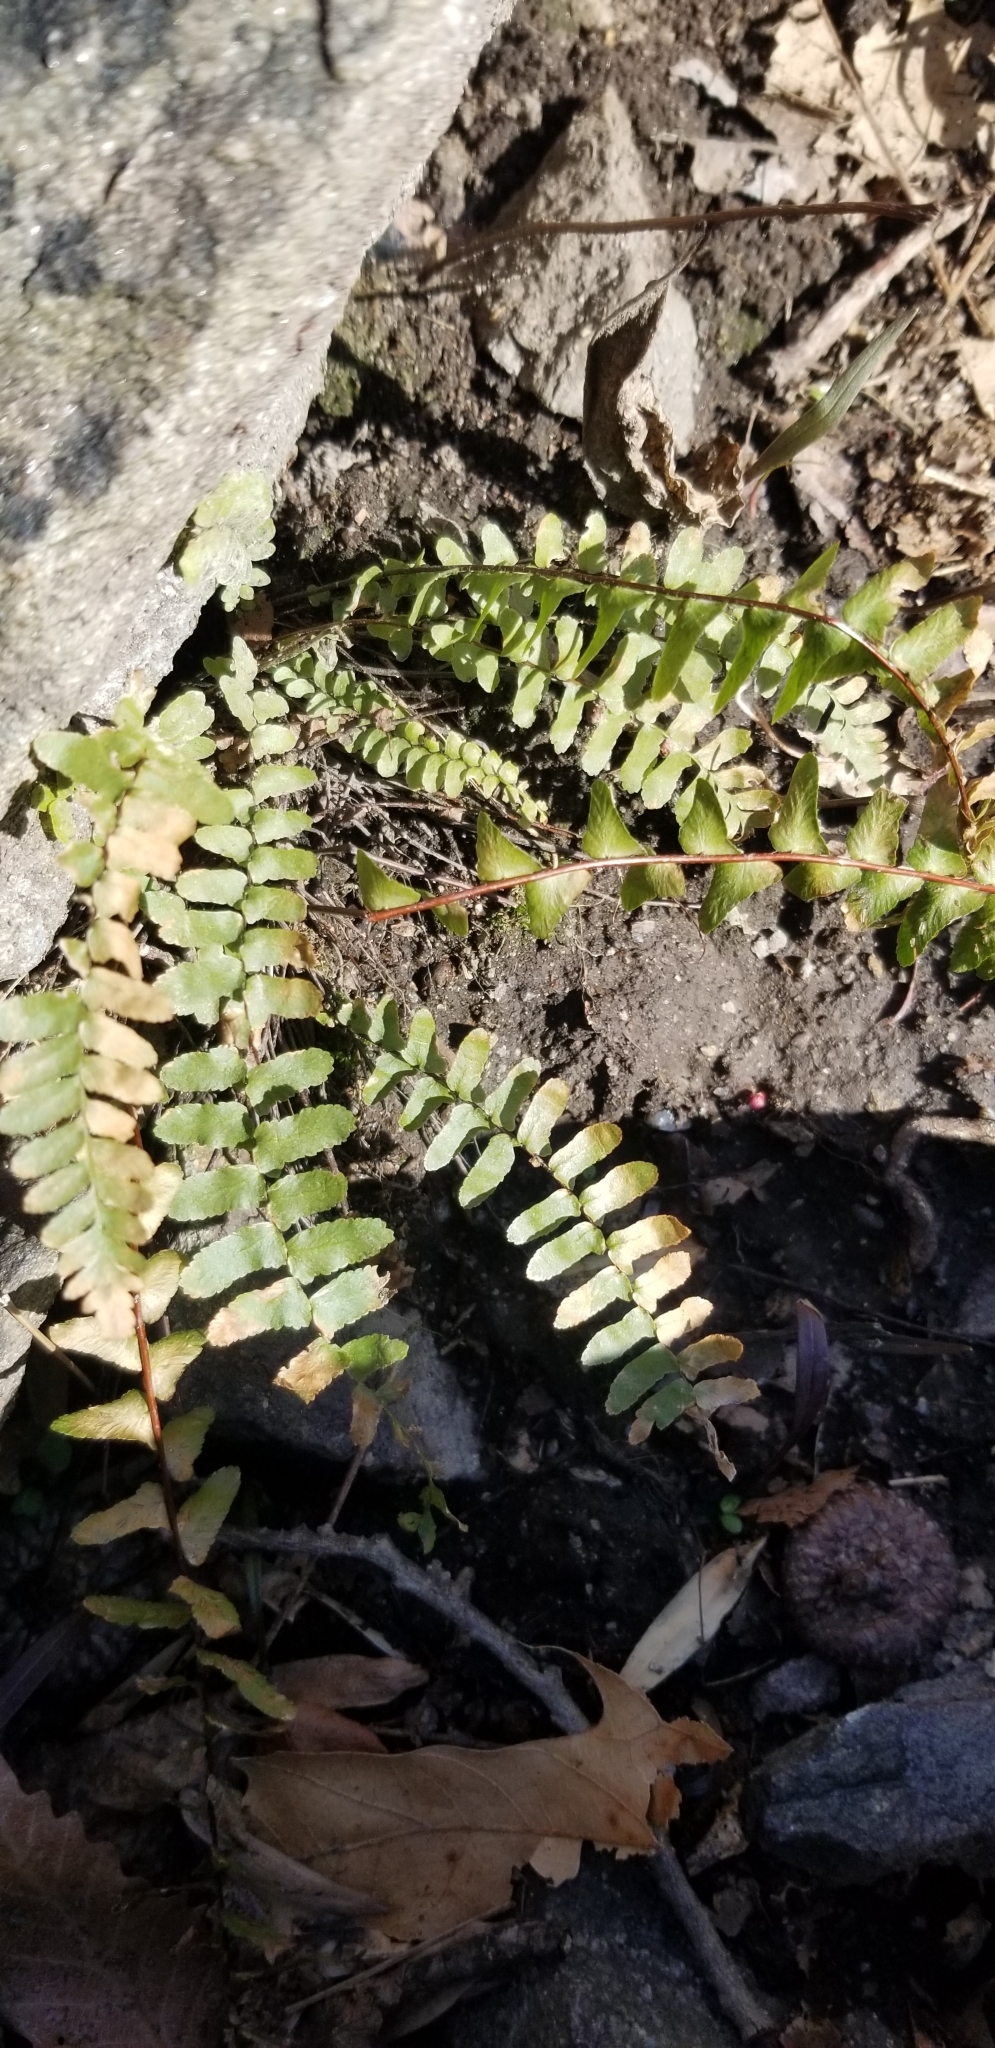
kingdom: Plantae
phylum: Tracheophyta
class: Polypodiopsida
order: Polypodiales
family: Aspleniaceae
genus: Asplenium
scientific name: Asplenium platyneuron
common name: Ebony spleenwort
